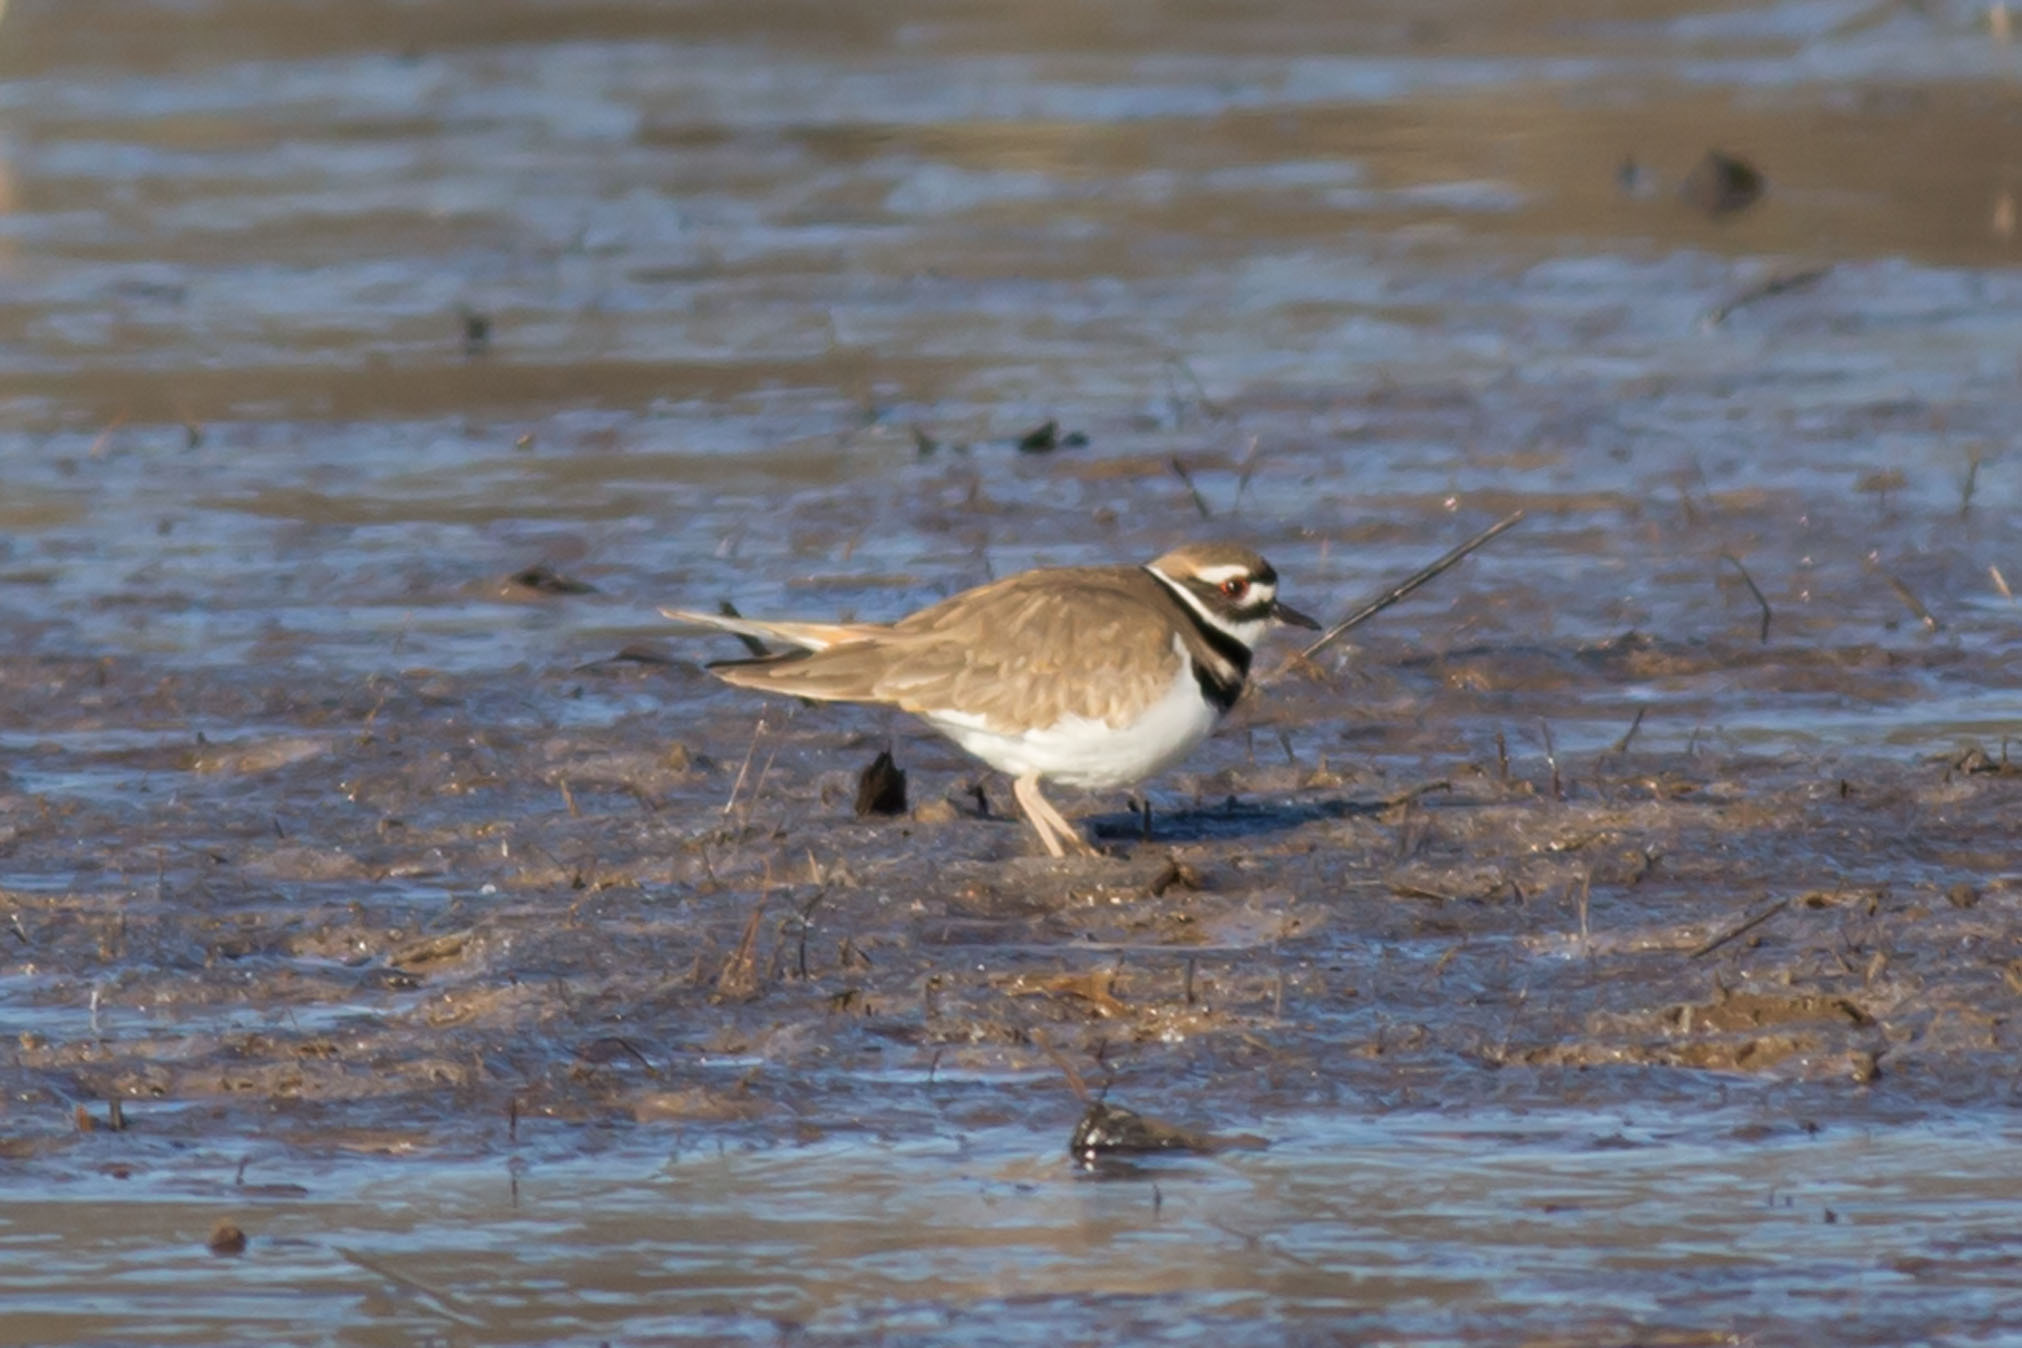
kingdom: Animalia
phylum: Chordata
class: Aves
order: Charadriiformes
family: Charadriidae
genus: Charadrius
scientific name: Charadrius vociferus
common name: Killdeer
